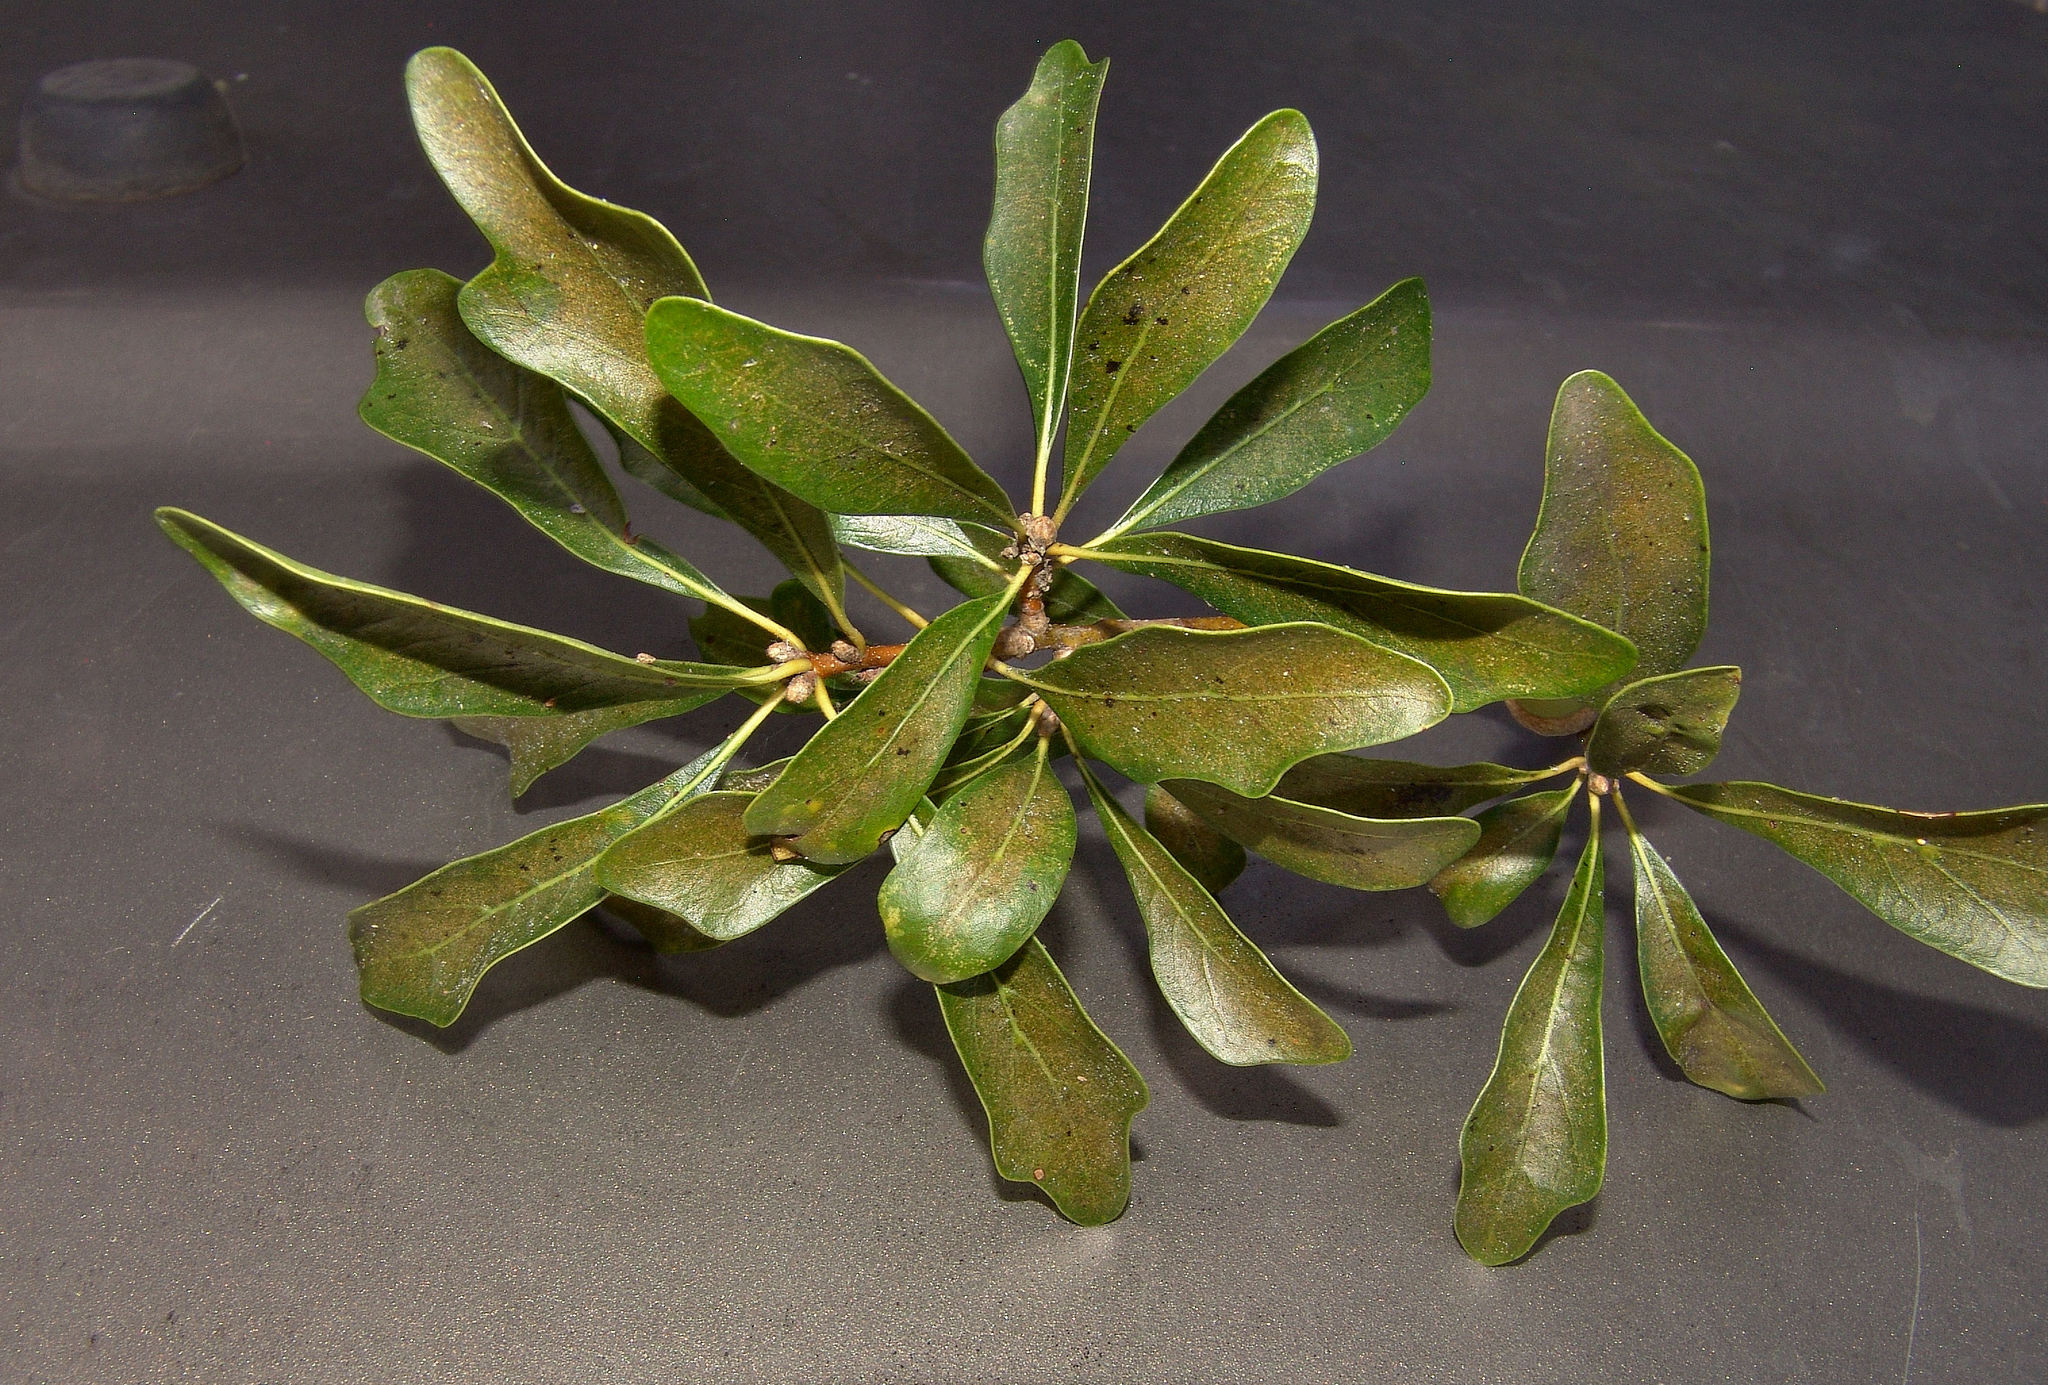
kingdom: Plantae
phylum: Tracheophyta
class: Magnoliopsida
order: Fagales
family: Fagaceae
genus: Quercus
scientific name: Quercus nigra
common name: Water oak
